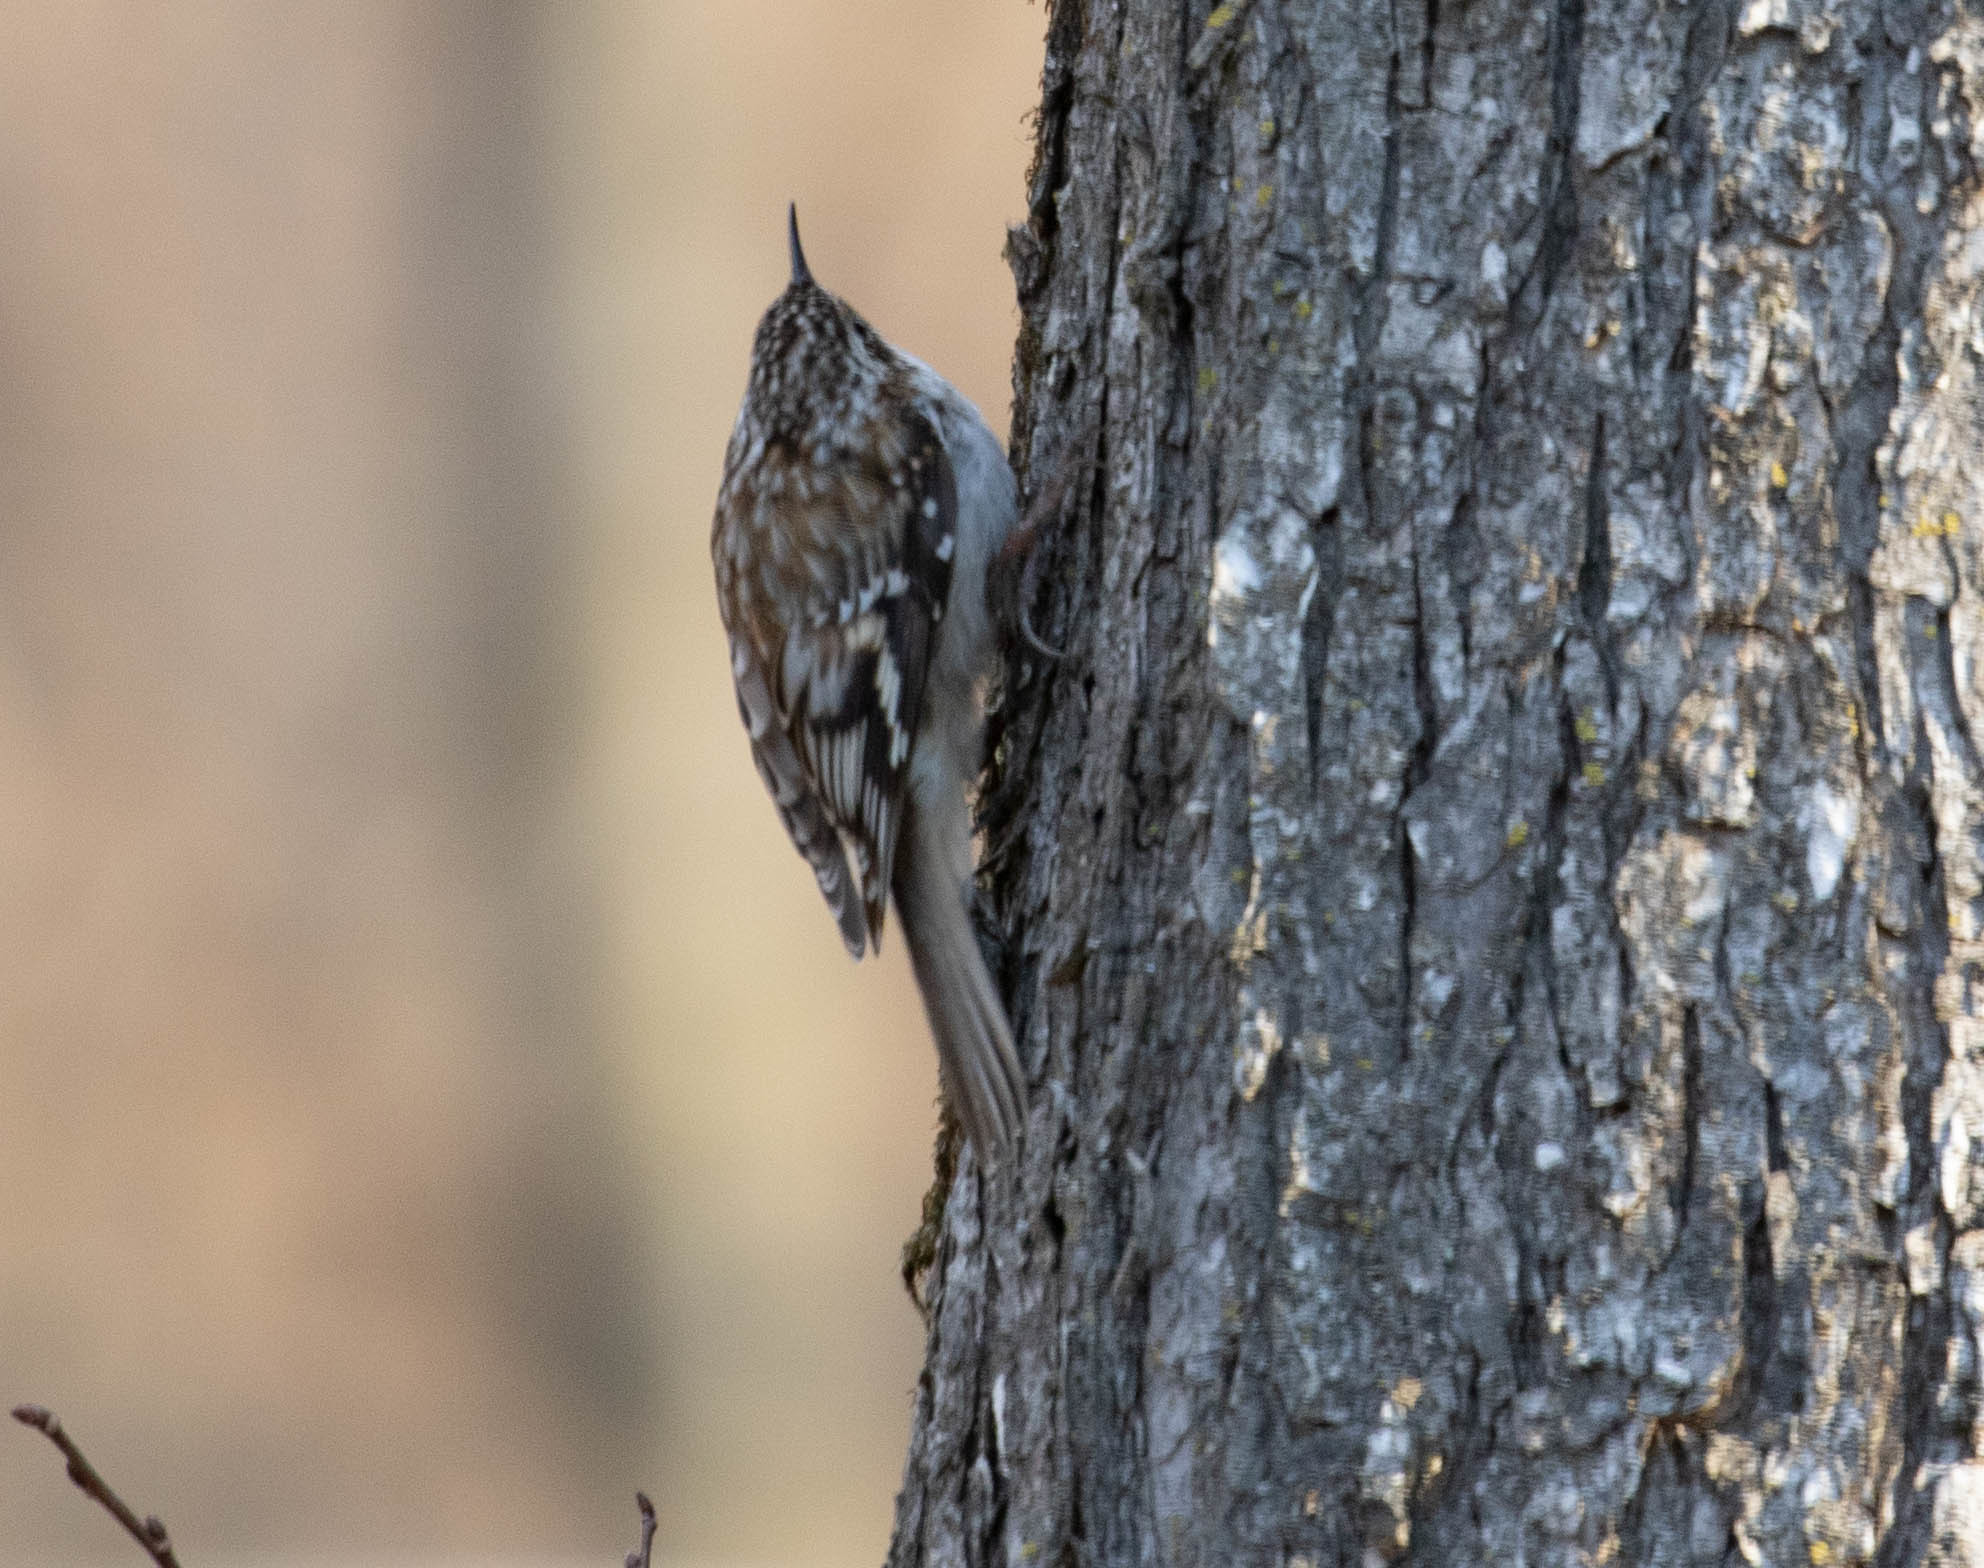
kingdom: Animalia
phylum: Chordata
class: Aves
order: Passeriformes
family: Certhiidae
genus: Certhia
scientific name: Certhia americana
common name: Brown creeper
